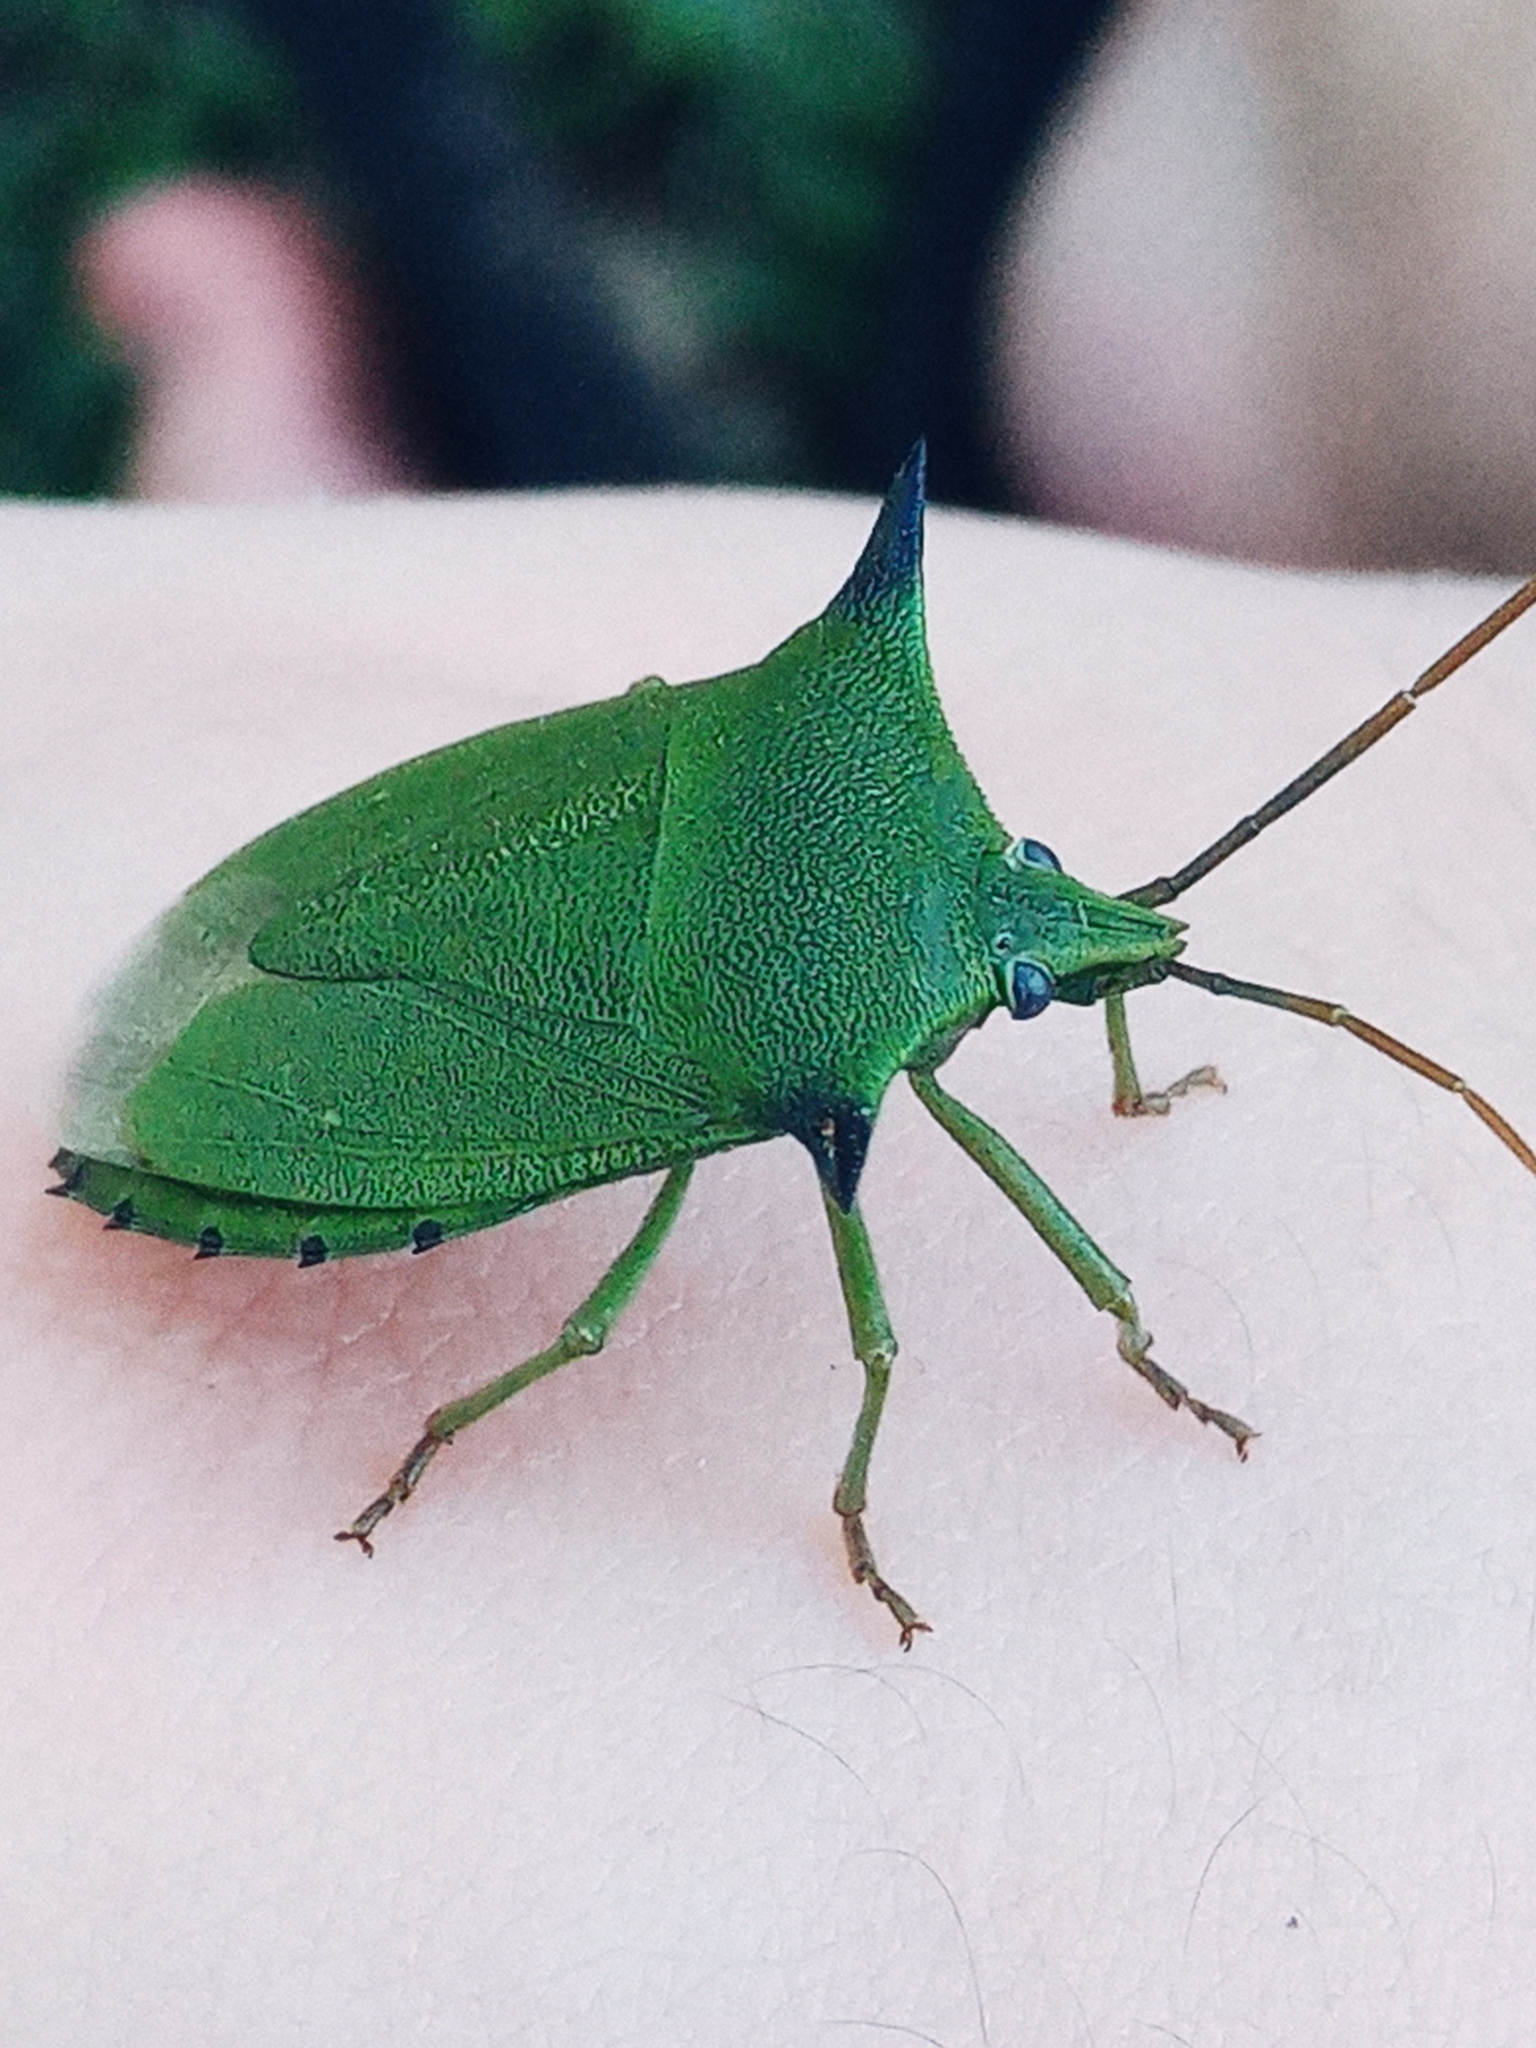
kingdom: Animalia
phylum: Arthropoda
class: Insecta
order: Hemiptera
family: Pentatomidae
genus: Biprorulus
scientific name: Biprorulus
